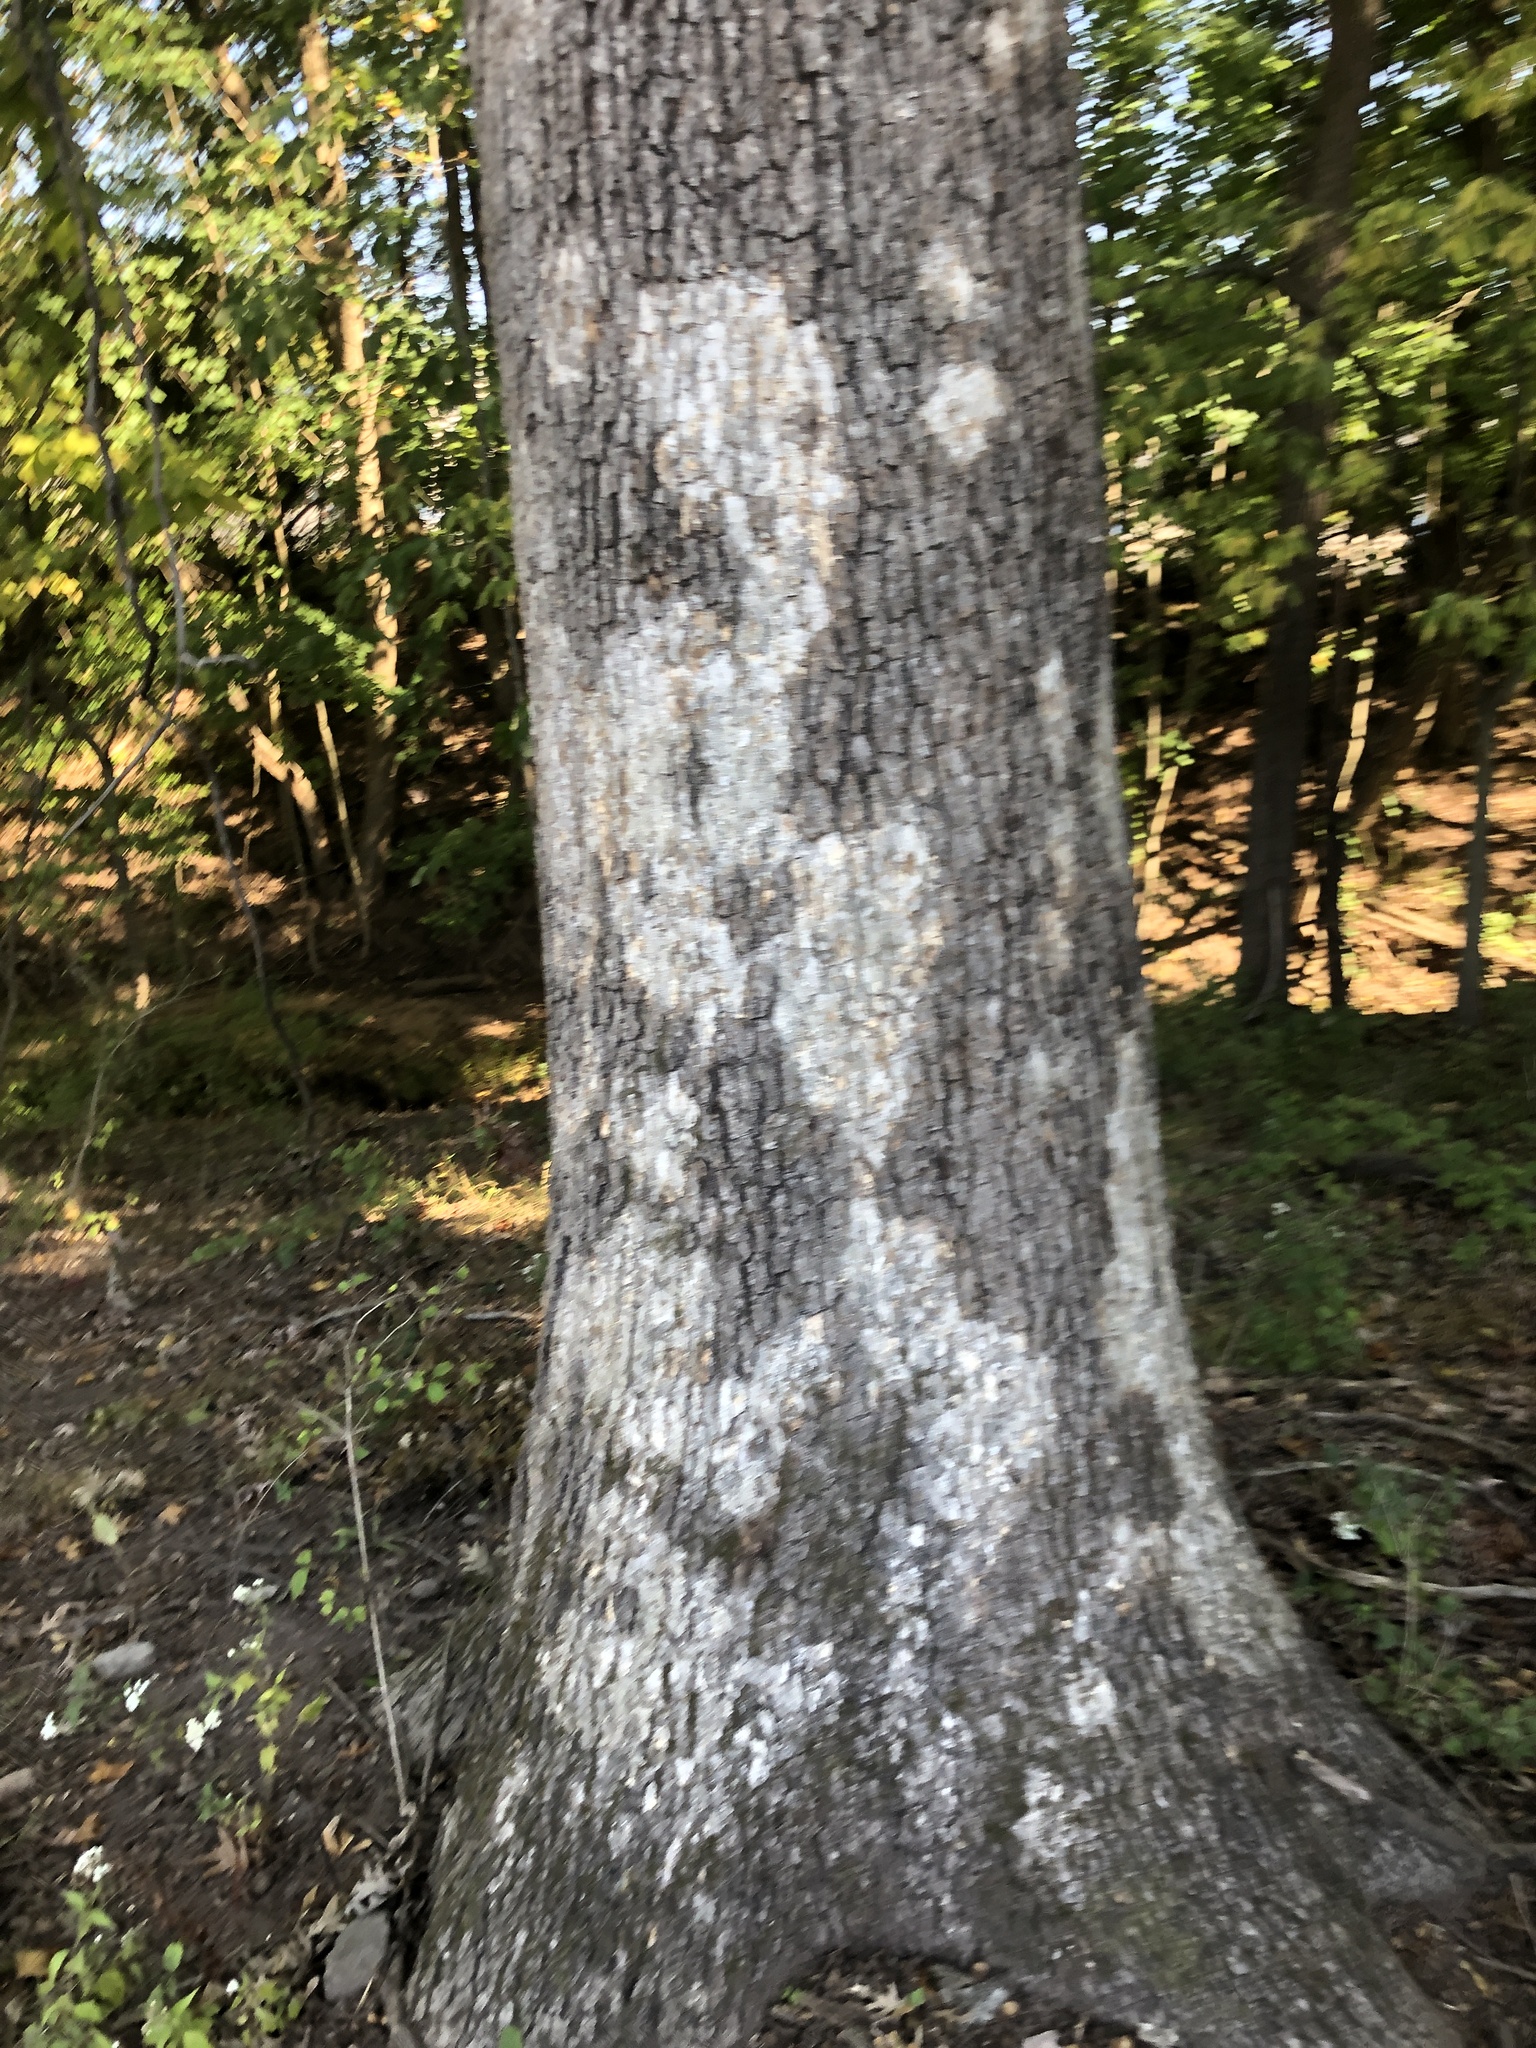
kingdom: Fungi
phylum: Basidiomycota
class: Agaricomycetes
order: Russulales
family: Stereaceae
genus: Acanthophysium
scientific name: Acanthophysium oakesii
